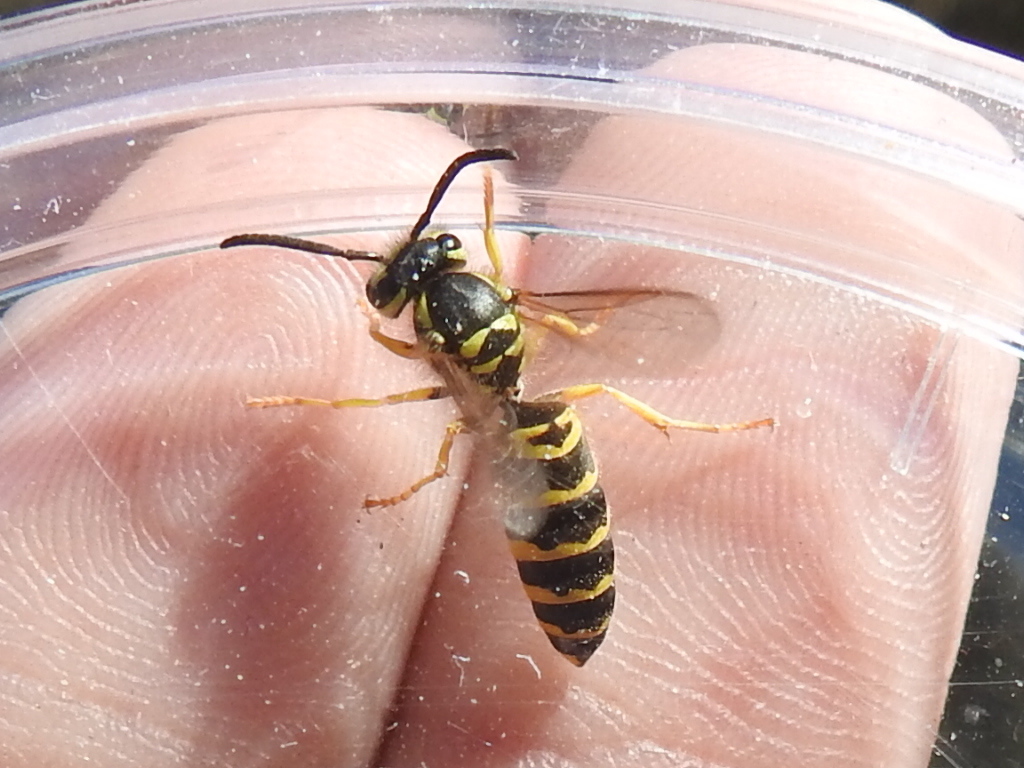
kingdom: Animalia
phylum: Arthropoda
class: Insecta
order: Hymenoptera
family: Vespidae
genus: Vespula
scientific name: Vespula maculifrons
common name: Eastern yellowjacket
